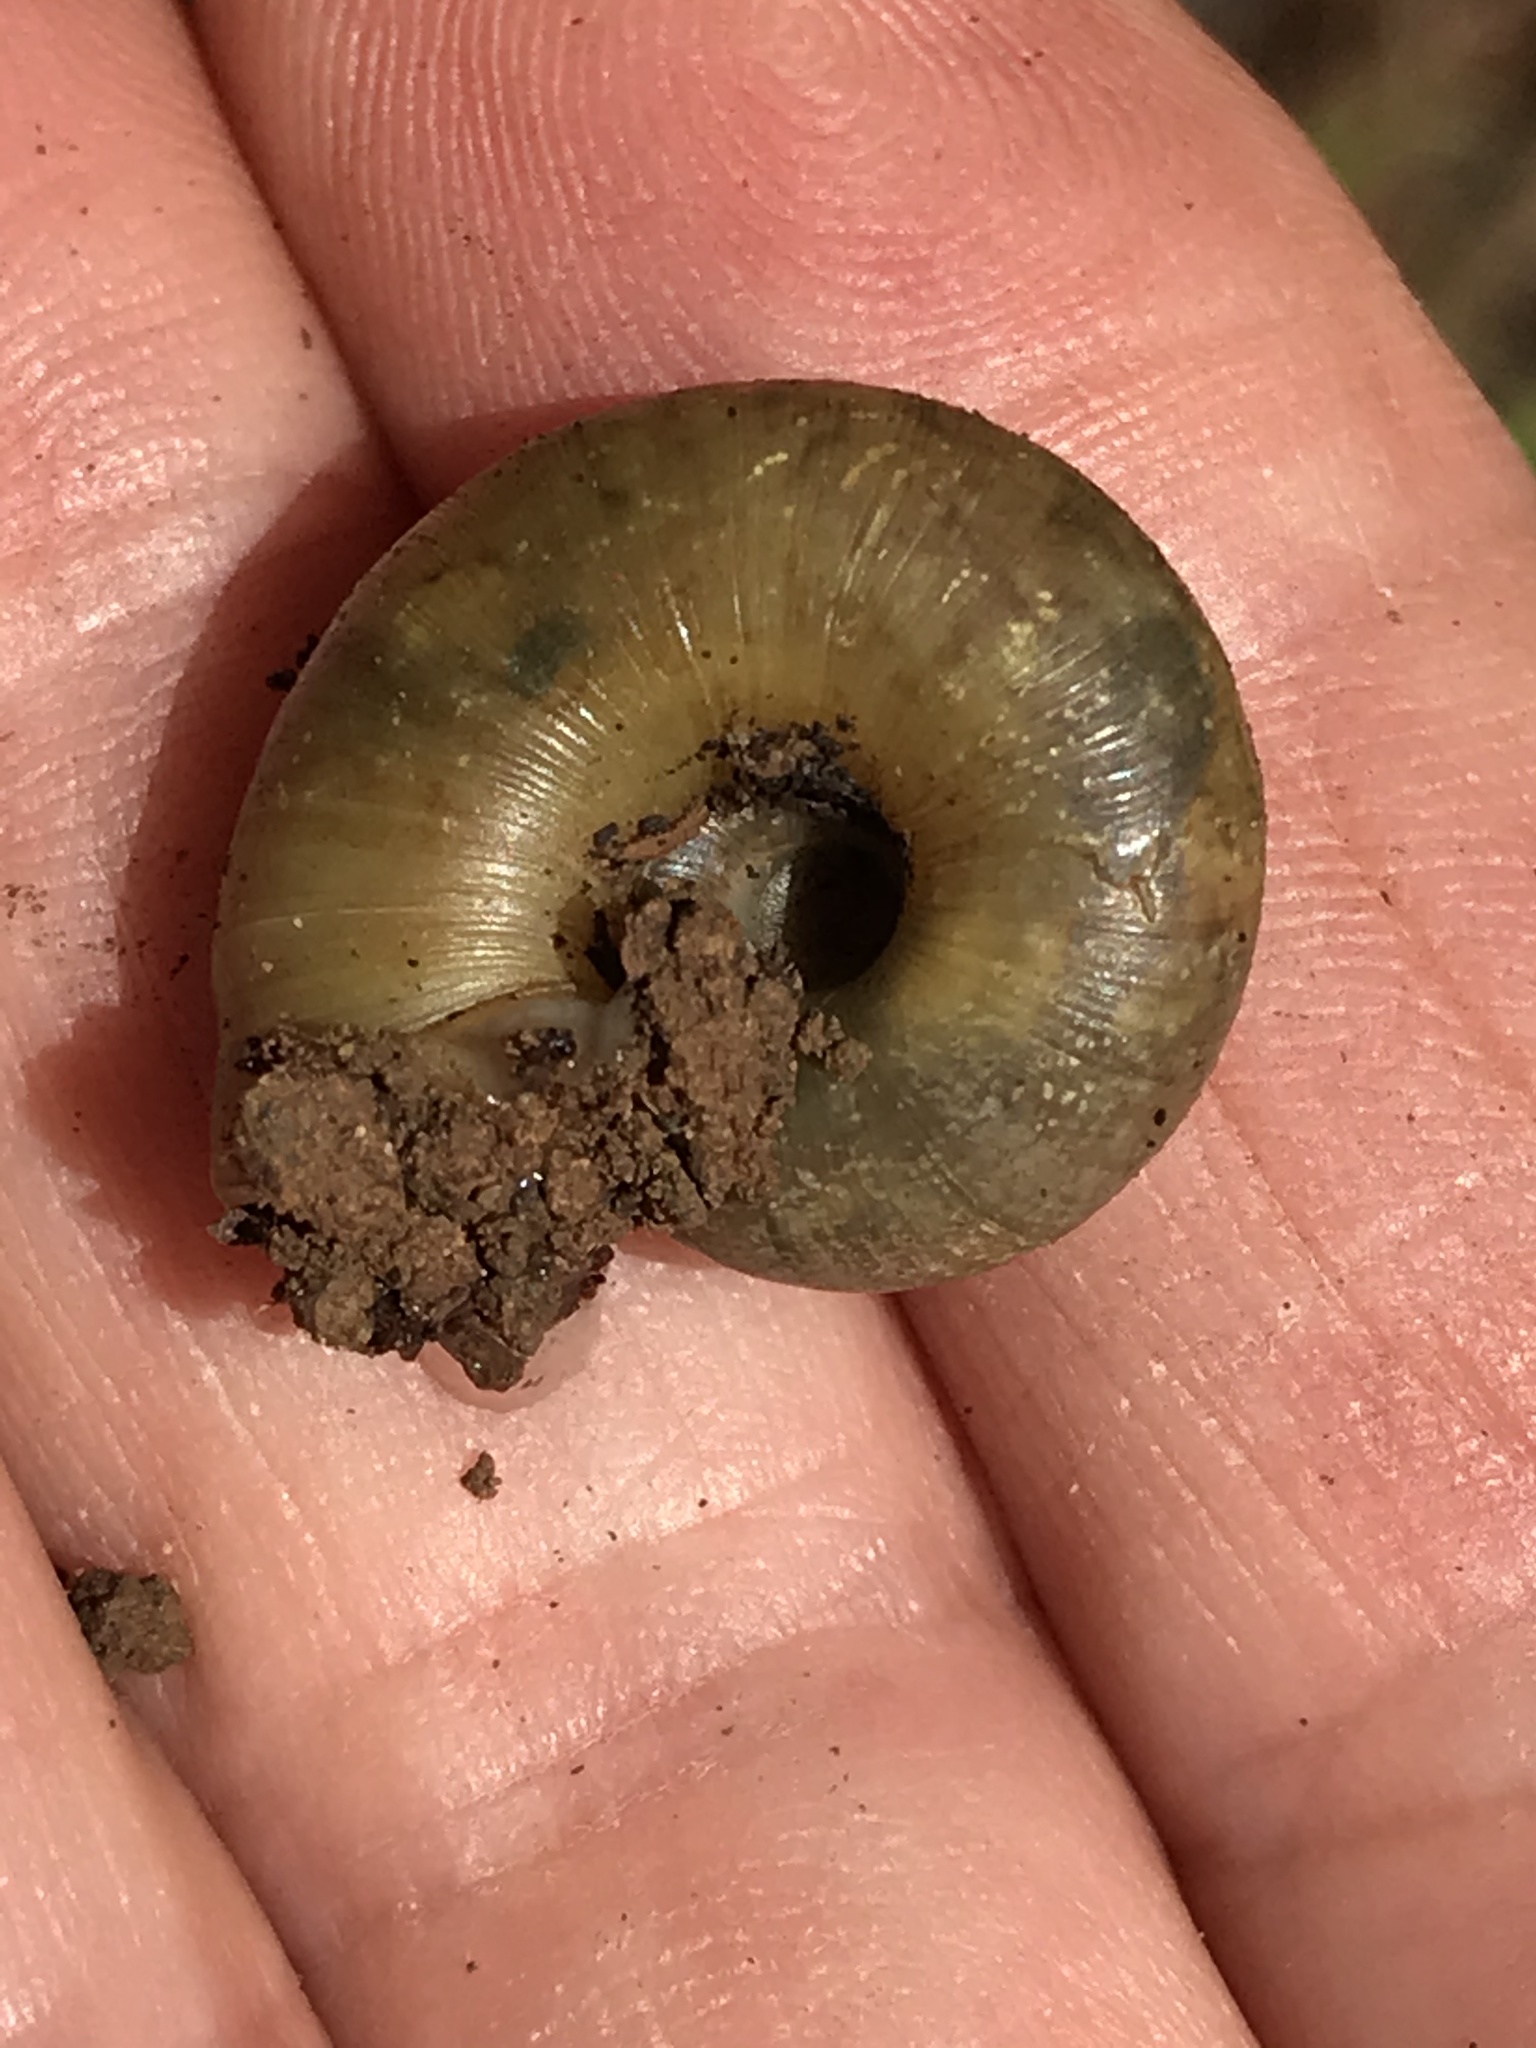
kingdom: Animalia
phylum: Mollusca
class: Gastropoda
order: Stylommatophora
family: Haplotrematidae
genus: Haplotrema
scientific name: Haplotrema minimum
